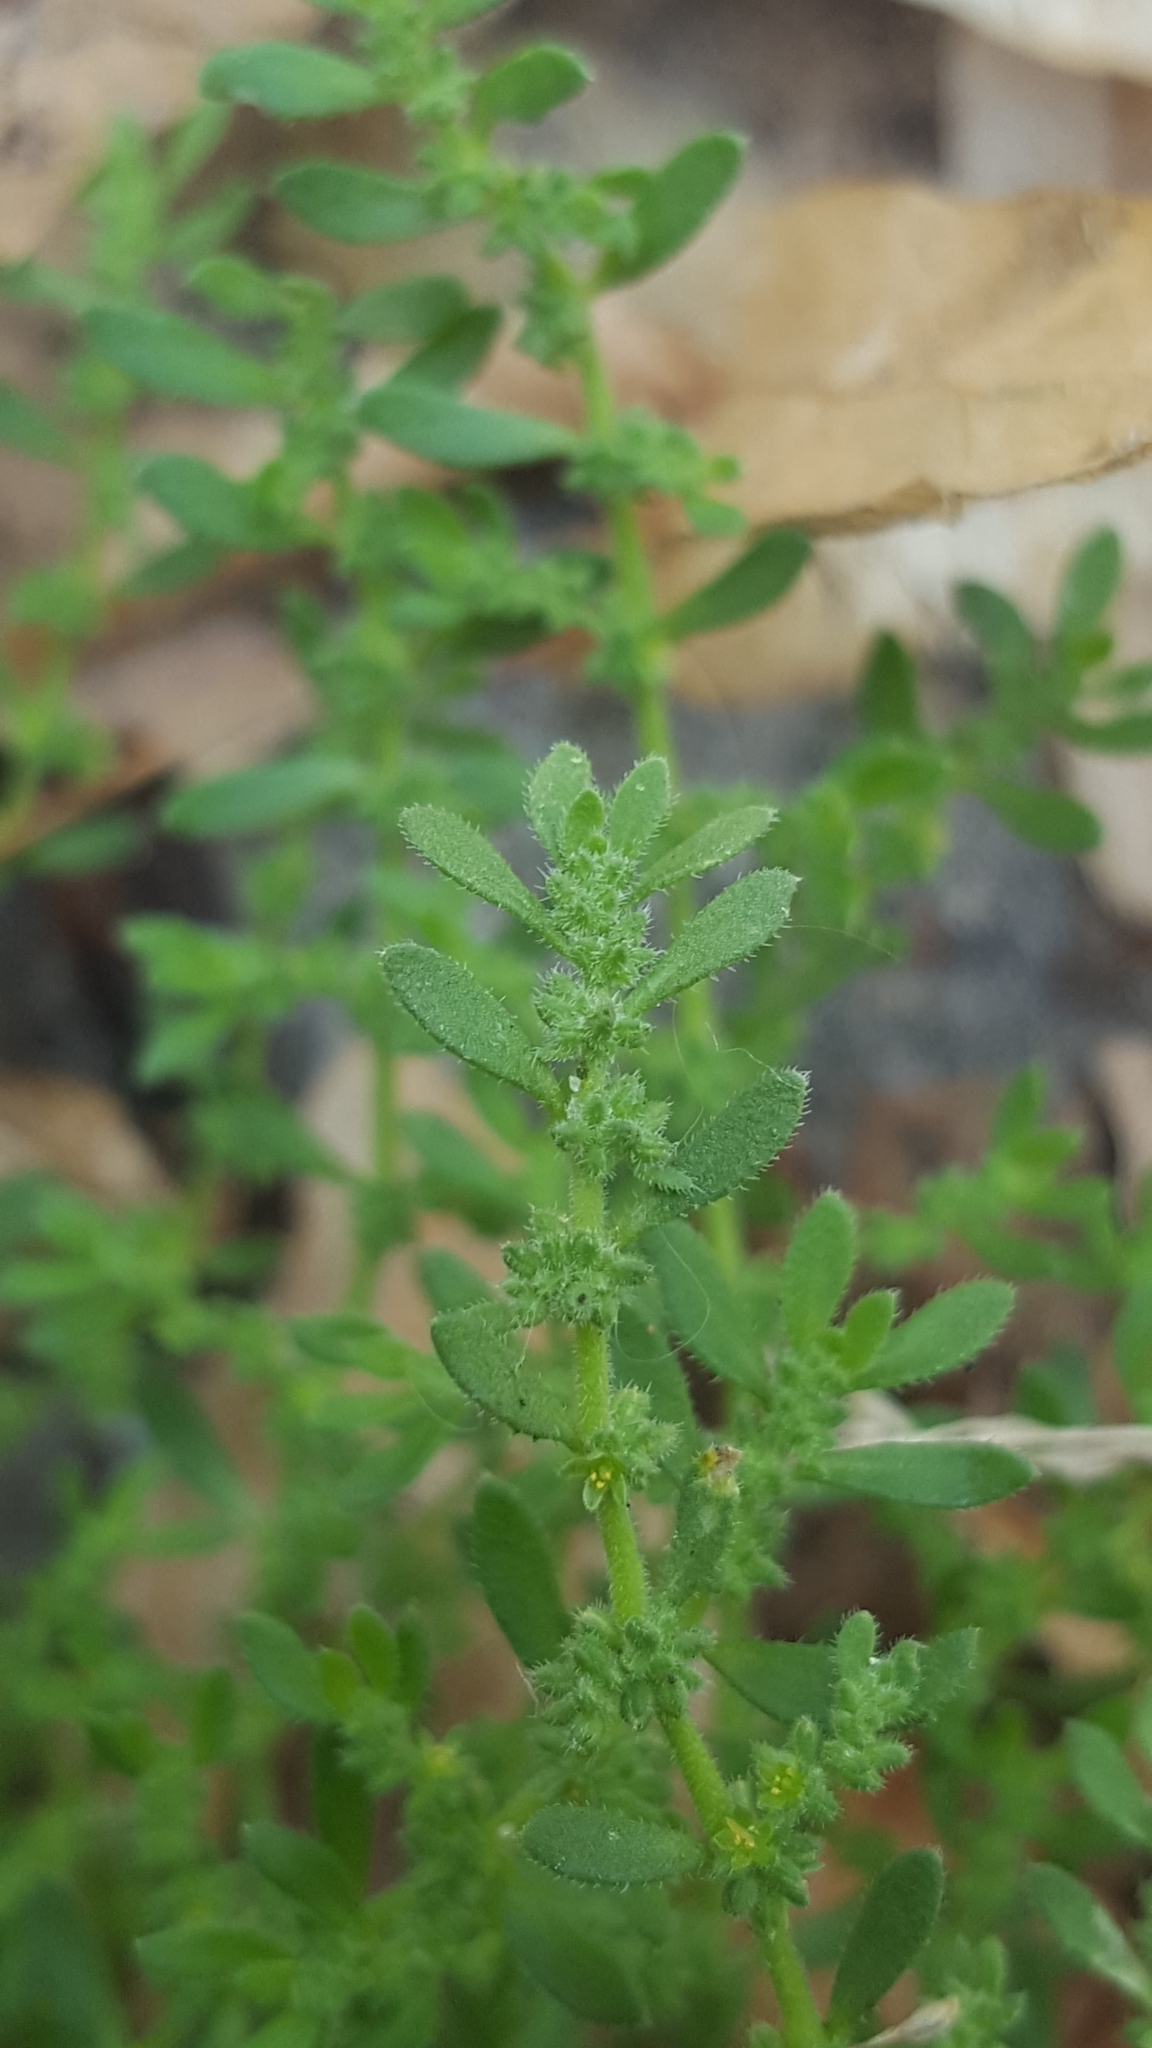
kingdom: Plantae
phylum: Tracheophyta
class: Magnoliopsida
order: Caryophyllales
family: Caryophyllaceae
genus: Herniaria
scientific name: Herniaria hirsuta
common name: Hairy rupturewort
